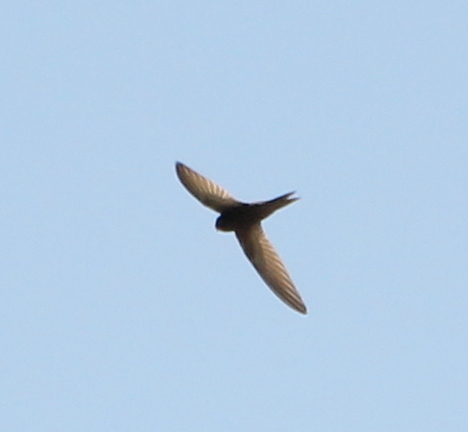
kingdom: Animalia
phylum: Chordata
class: Aves
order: Apodiformes
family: Apodidae
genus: Apus
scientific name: Apus apus
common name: Common swift
